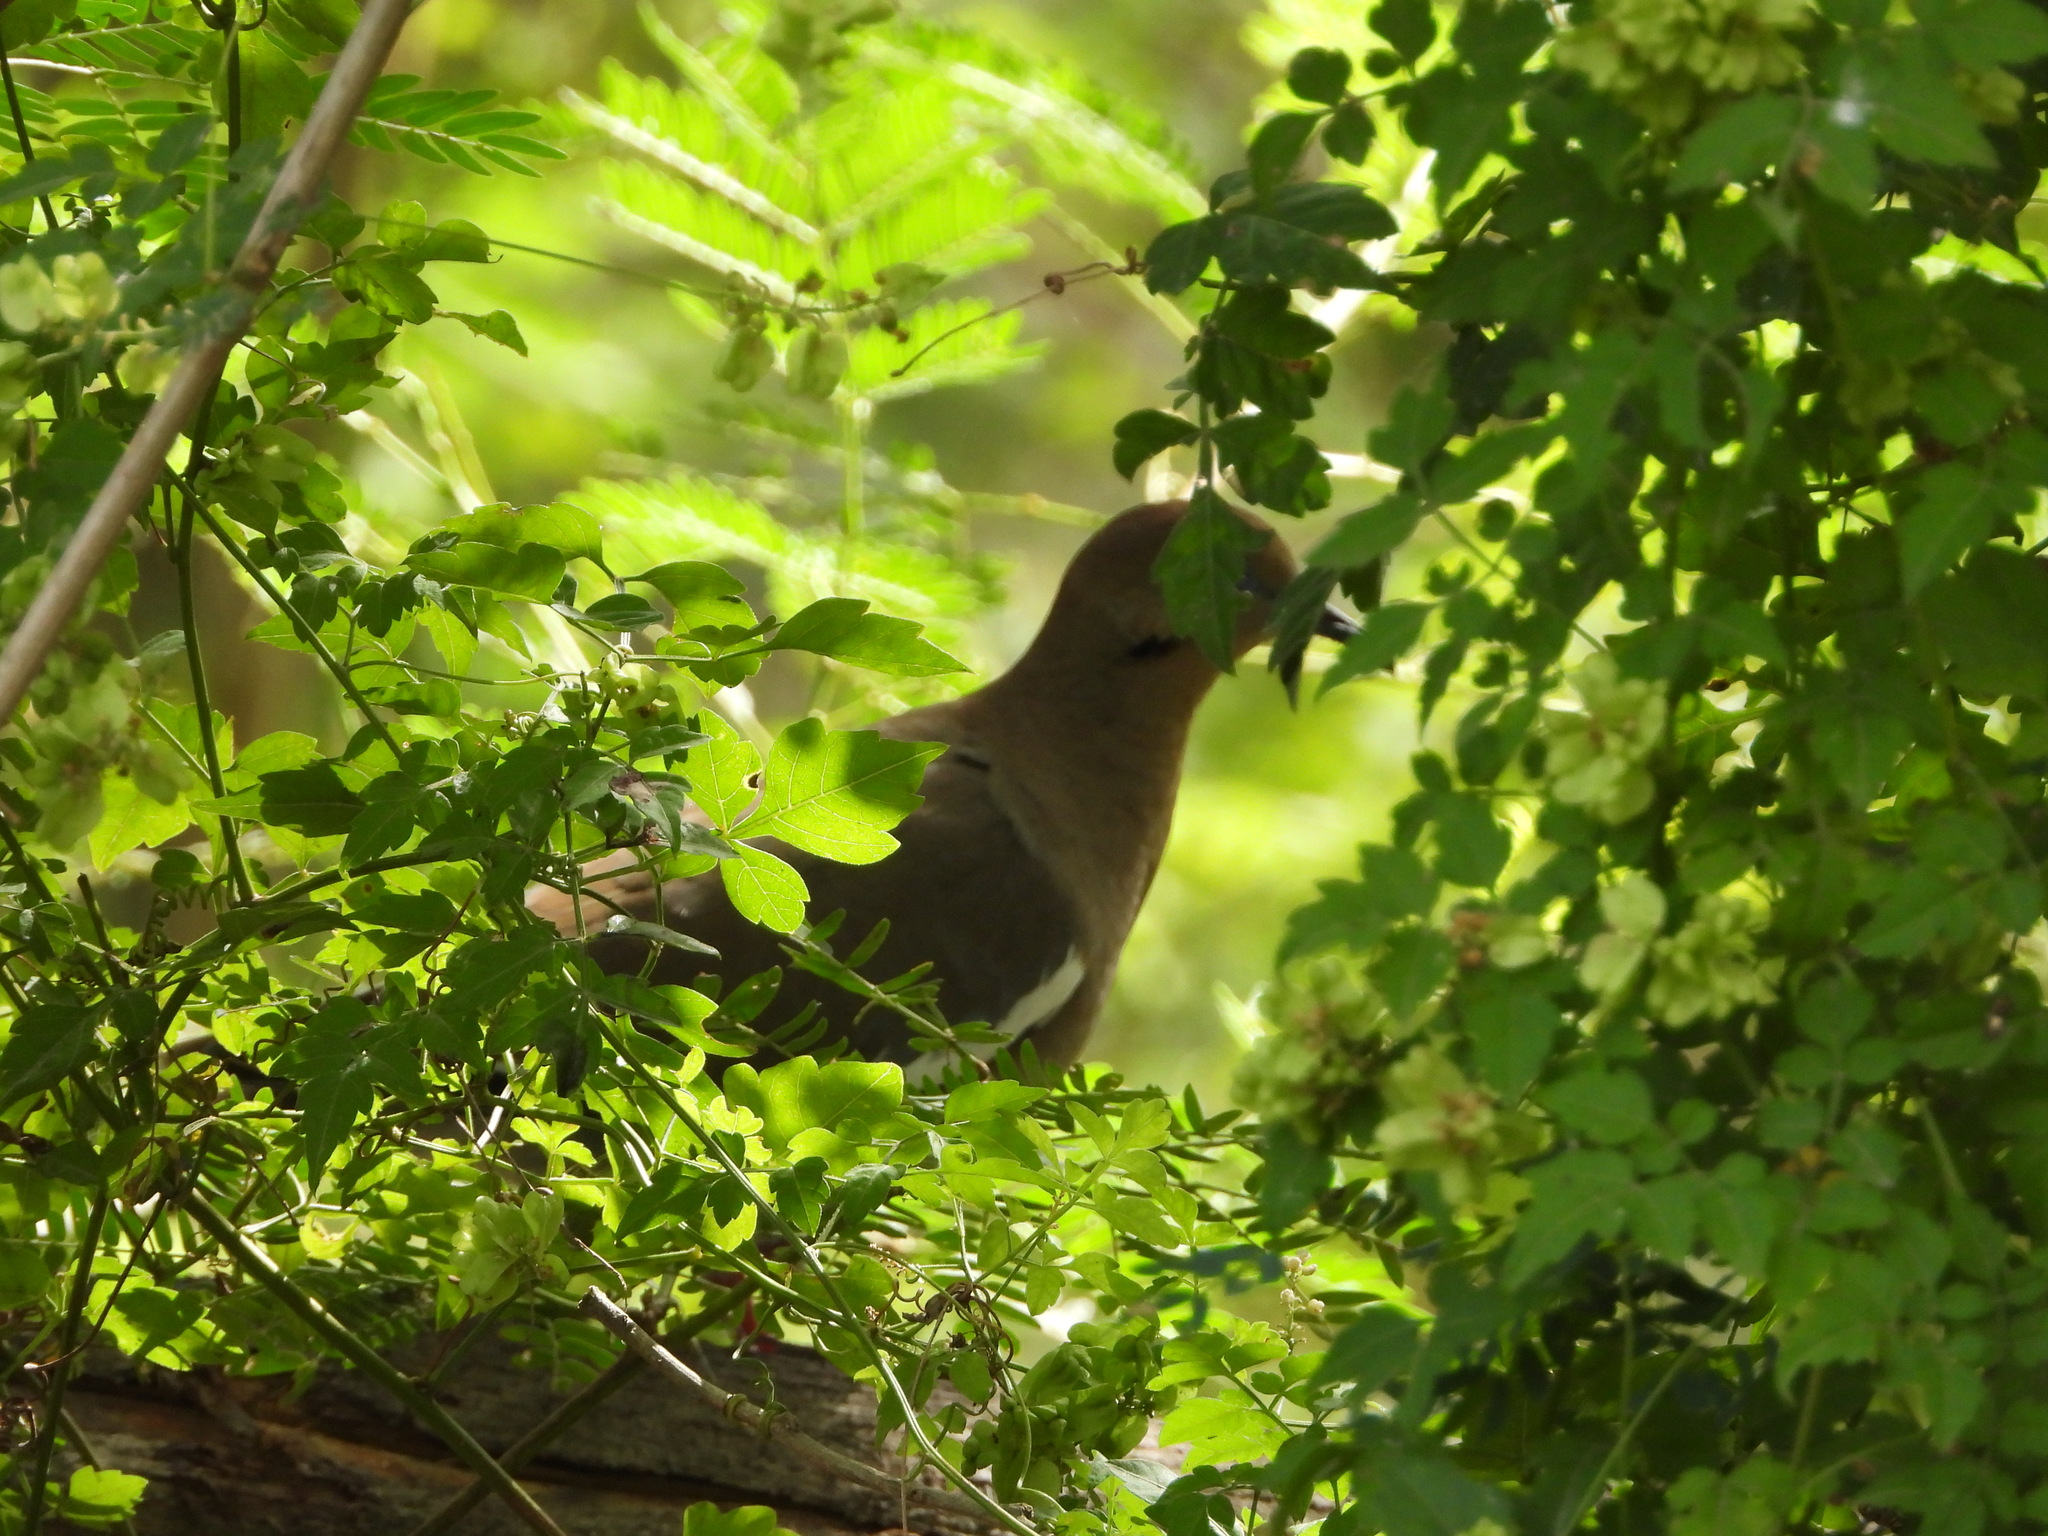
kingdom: Animalia
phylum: Chordata
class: Aves
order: Columbiformes
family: Columbidae
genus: Zenaida
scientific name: Zenaida asiatica
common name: White-winged dove
